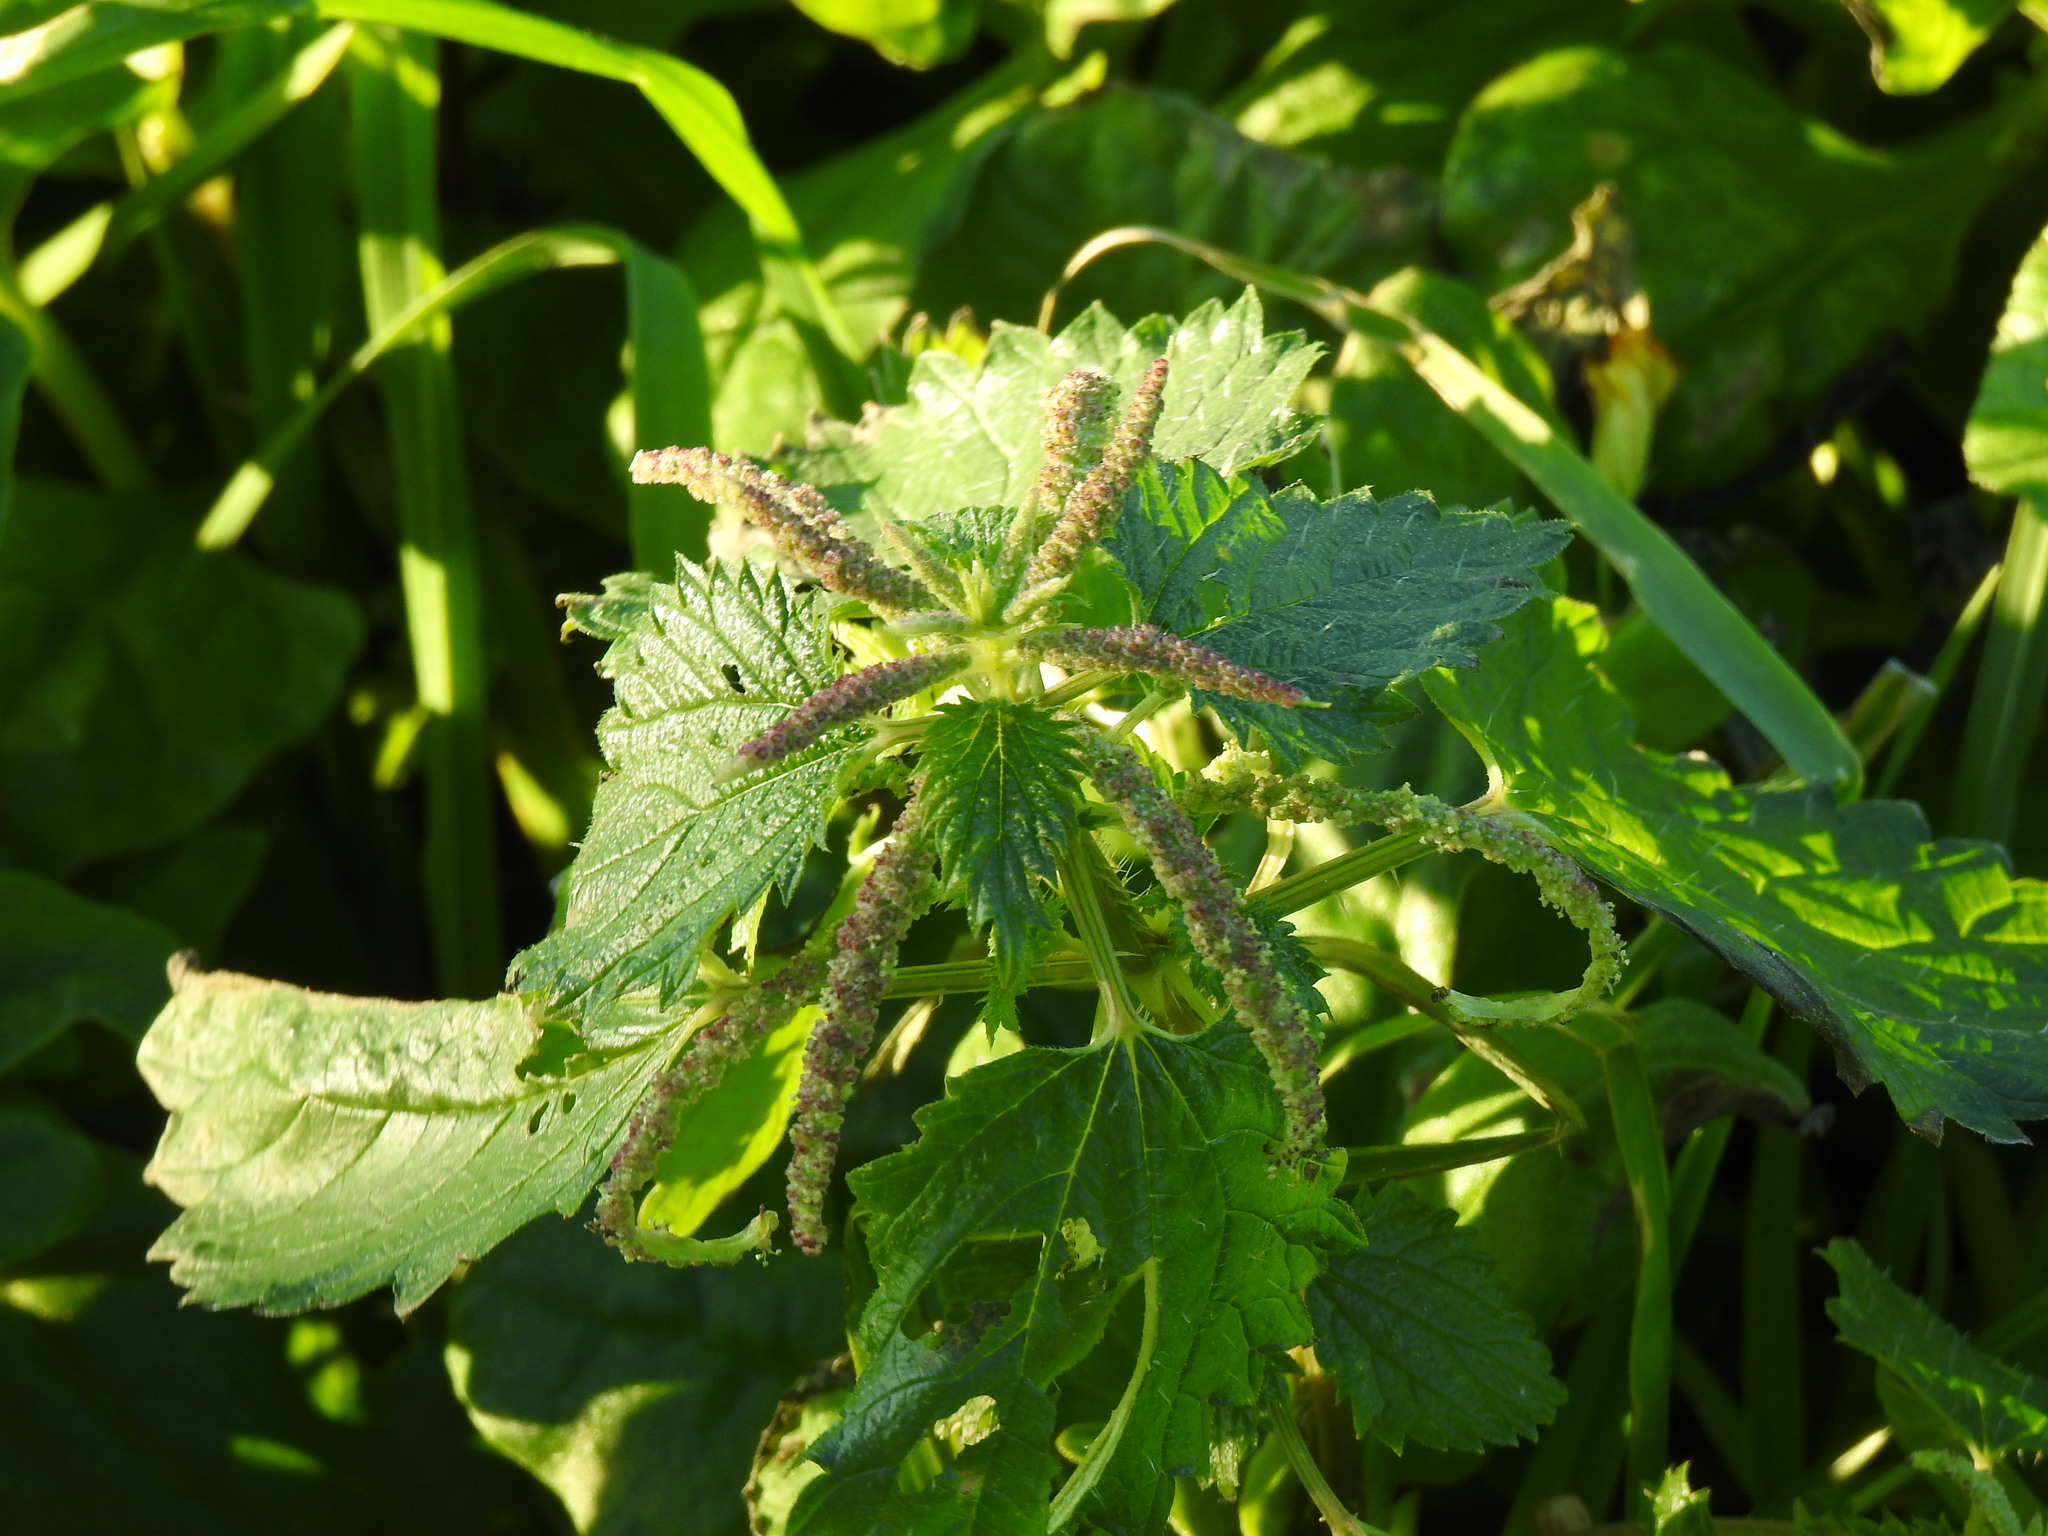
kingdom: Plantae
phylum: Tracheophyta
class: Magnoliopsida
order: Rosales
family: Urticaceae
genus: Urtica
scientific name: Urtica membranacea
